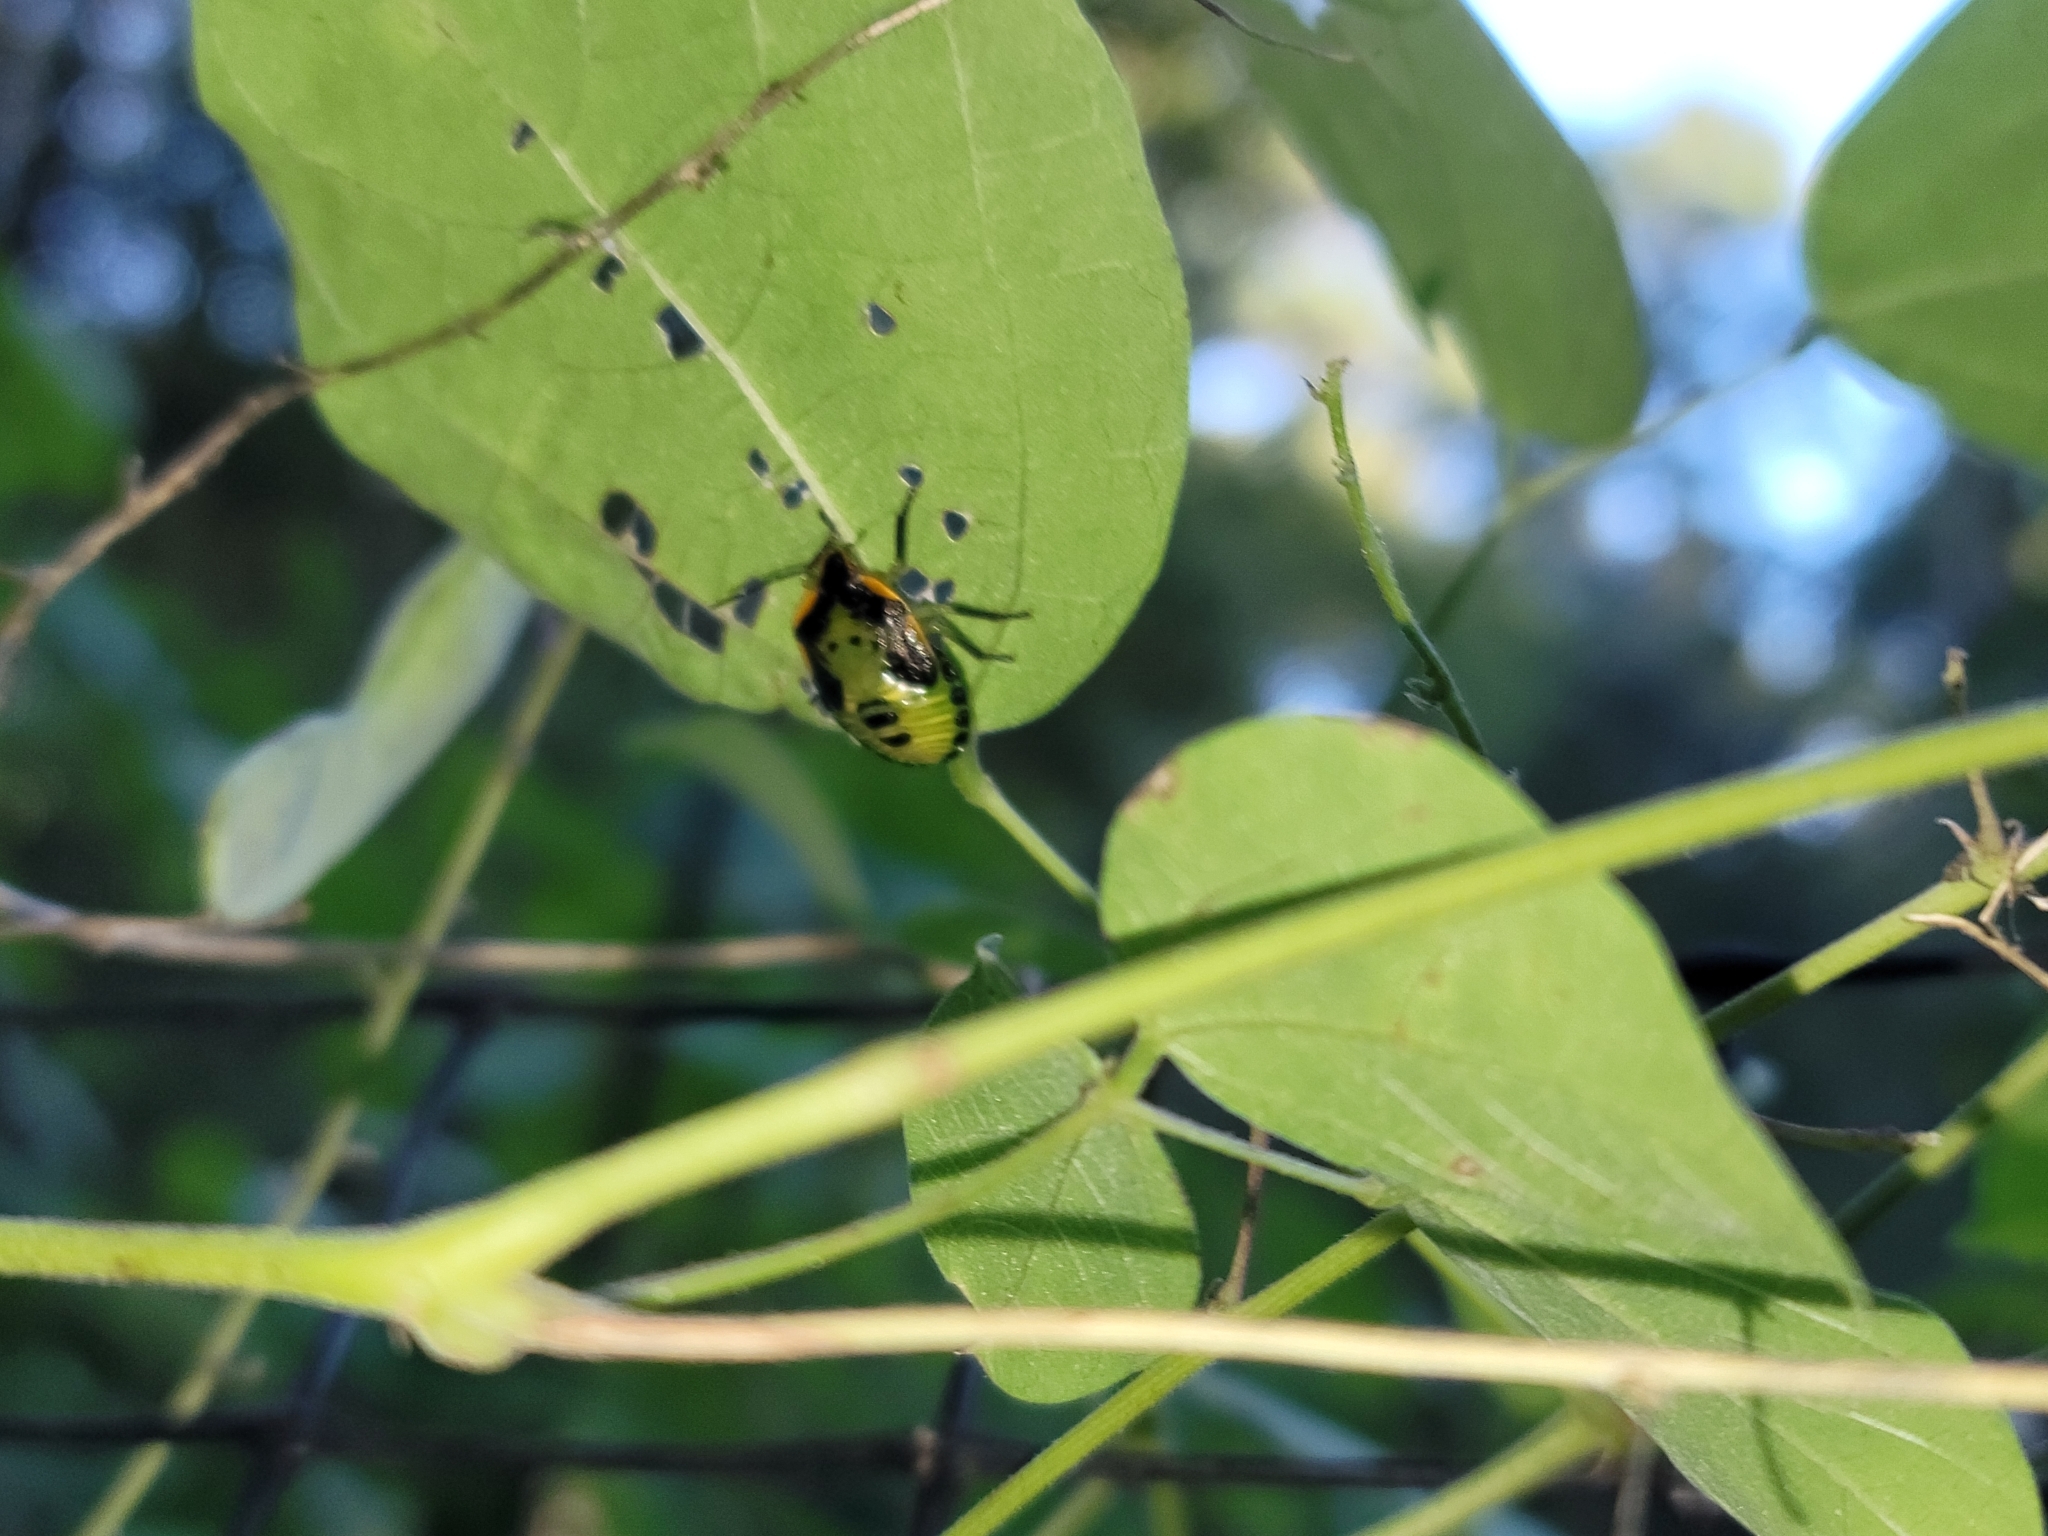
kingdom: Animalia
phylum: Arthropoda
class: Insecta
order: Hemiptera
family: Pentatomidae
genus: Chinavia
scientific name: Chinavia hilaris
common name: Green stink bug
